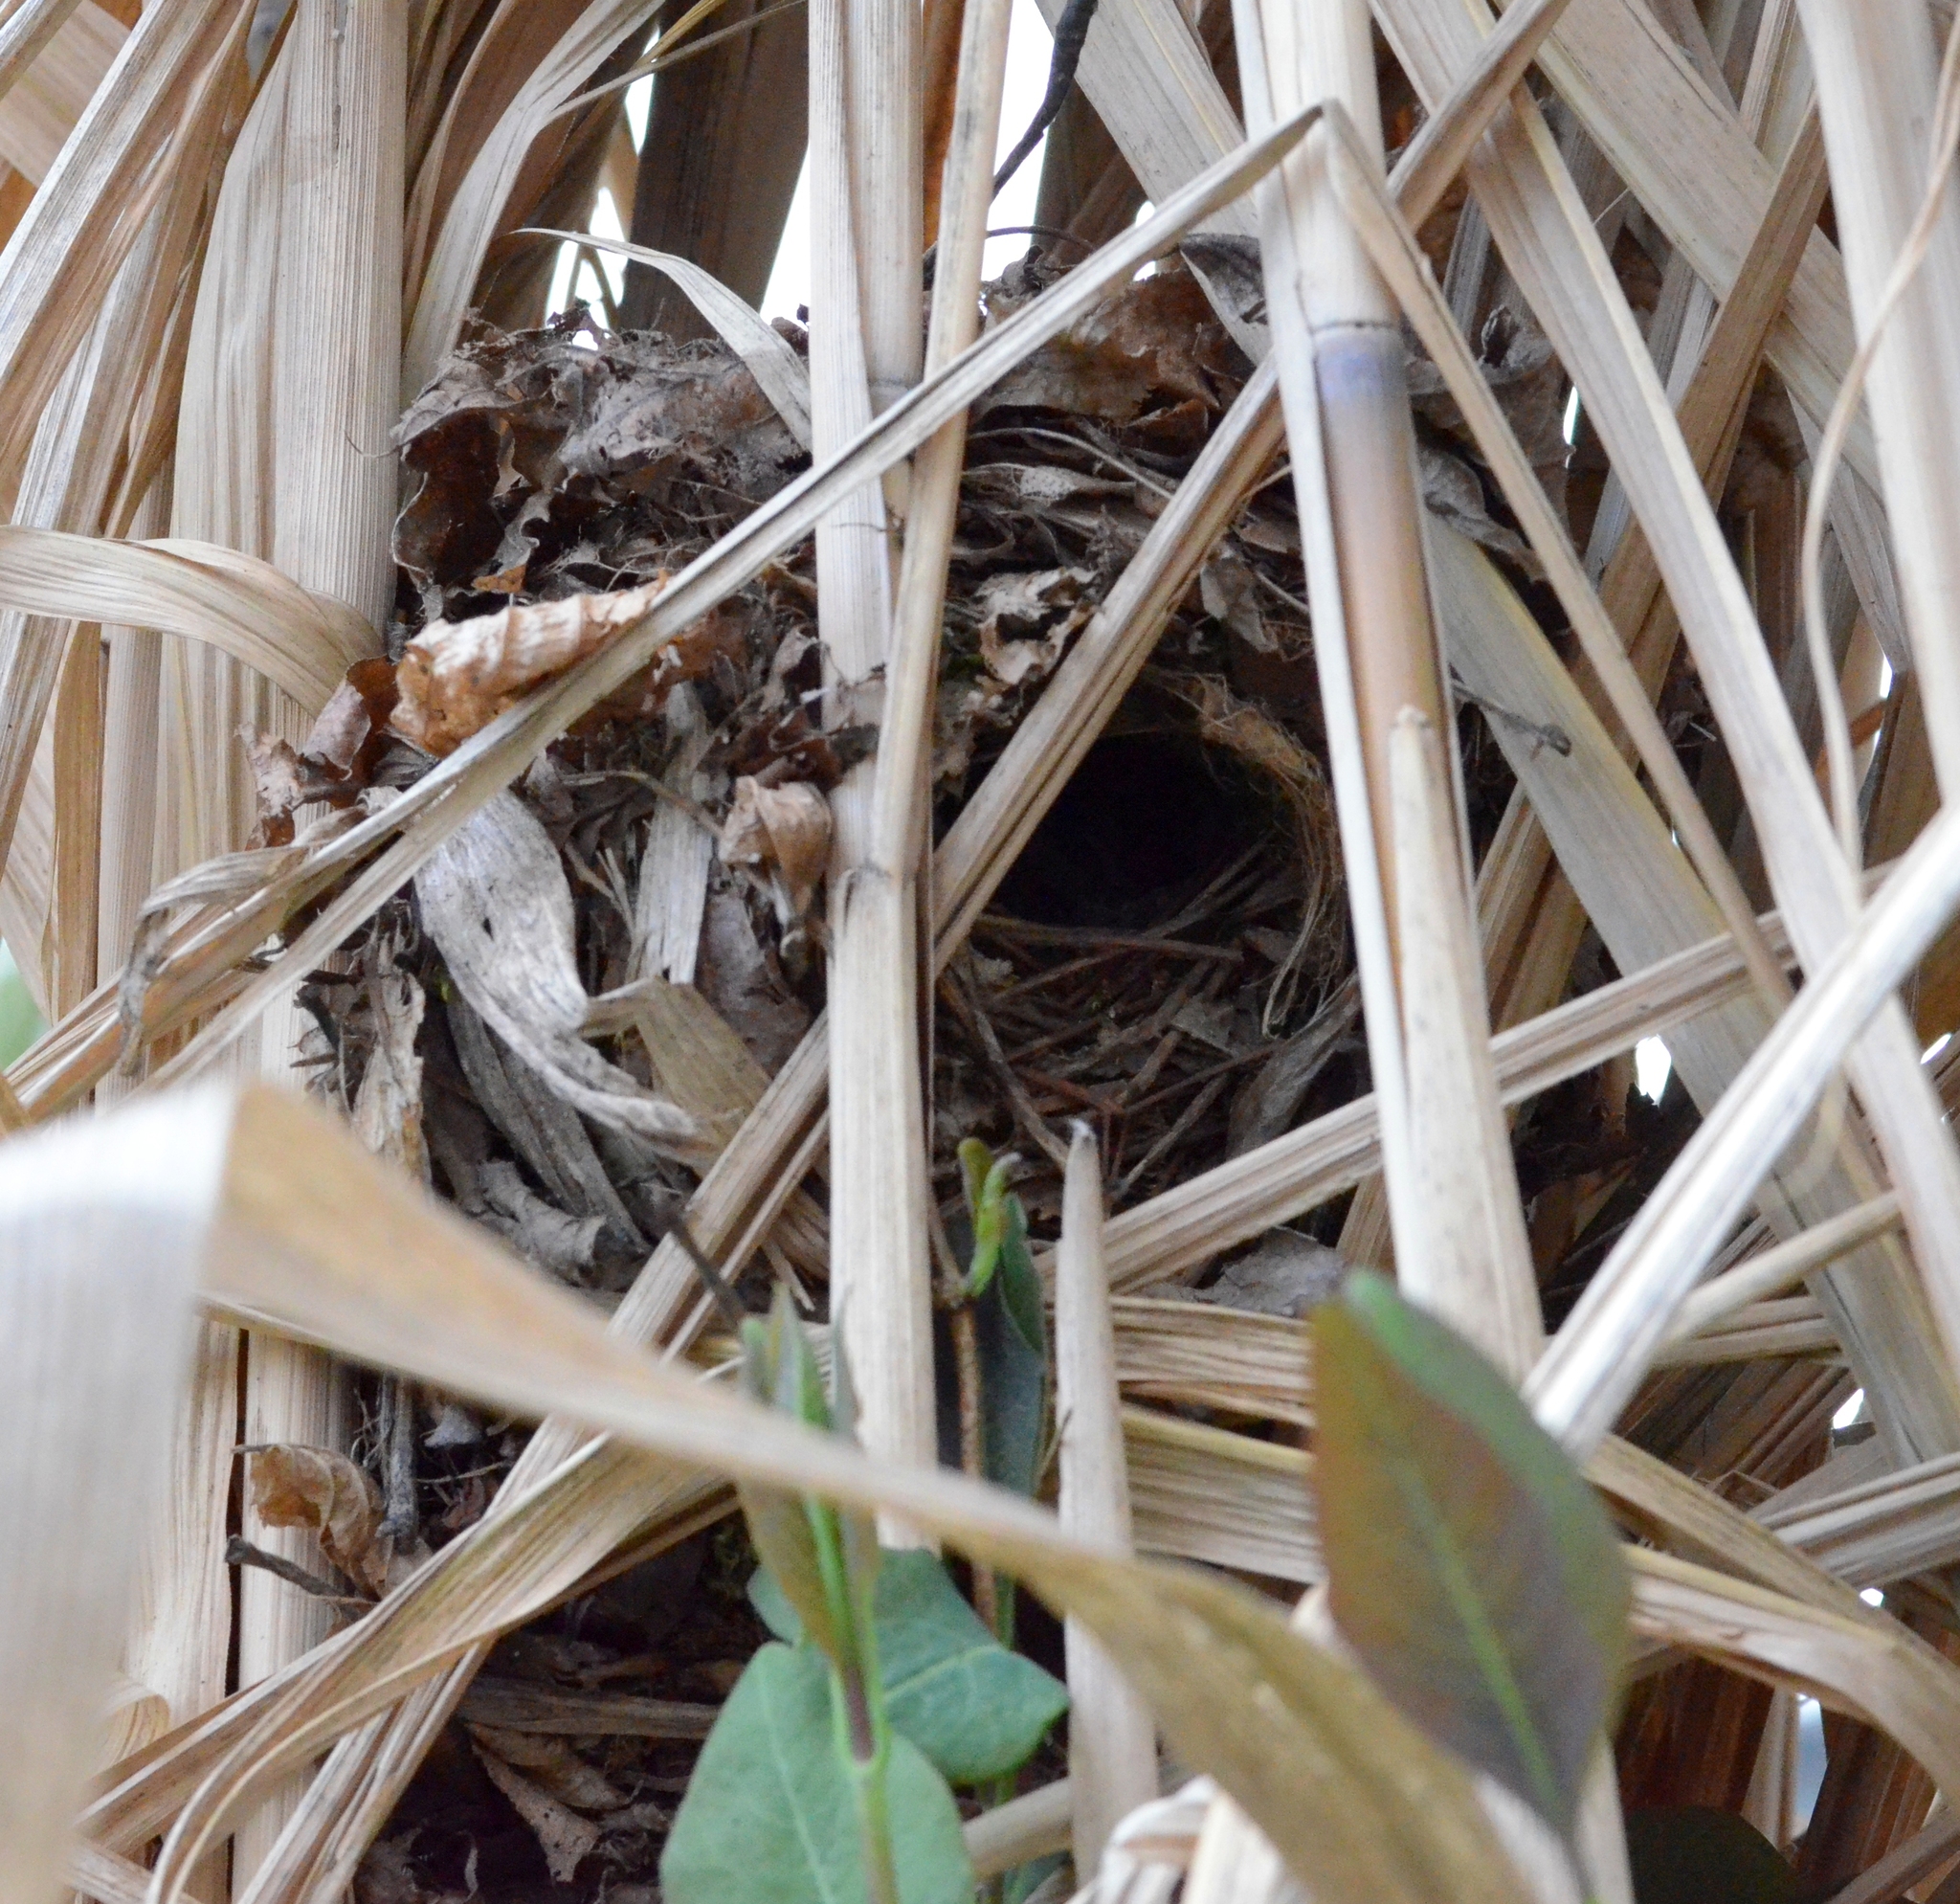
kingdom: Animalia
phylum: Chordata
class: Aves
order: Passeriformes
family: Troglodytidae
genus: Troglodytes
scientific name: Troglodytes troglodytes
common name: Eurasian wren
